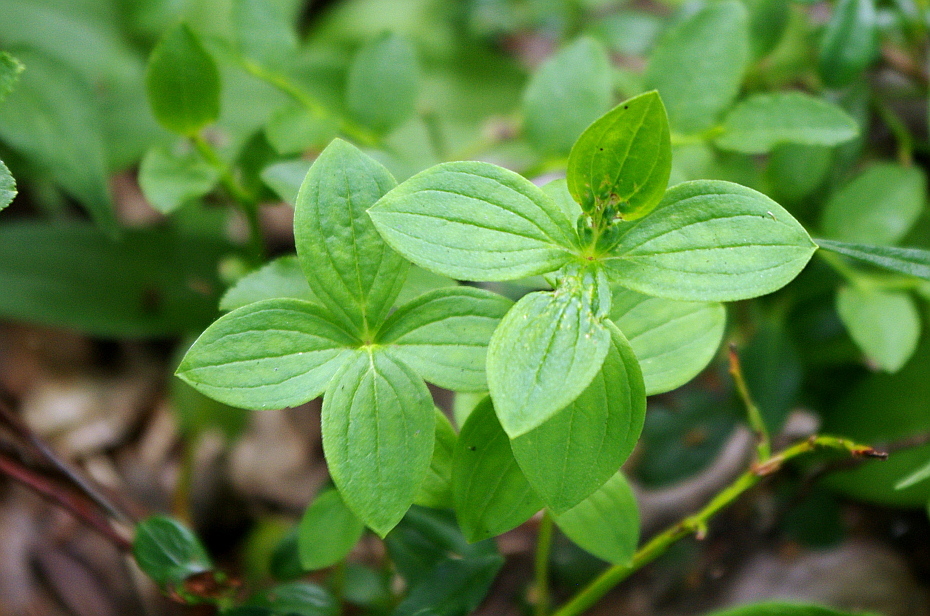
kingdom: Plantae
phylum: Tracheophyta
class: Magnoliopsida
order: Cornales
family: Cornaceae
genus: Cornus
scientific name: Cornus suecica
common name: Dwarf cornel
